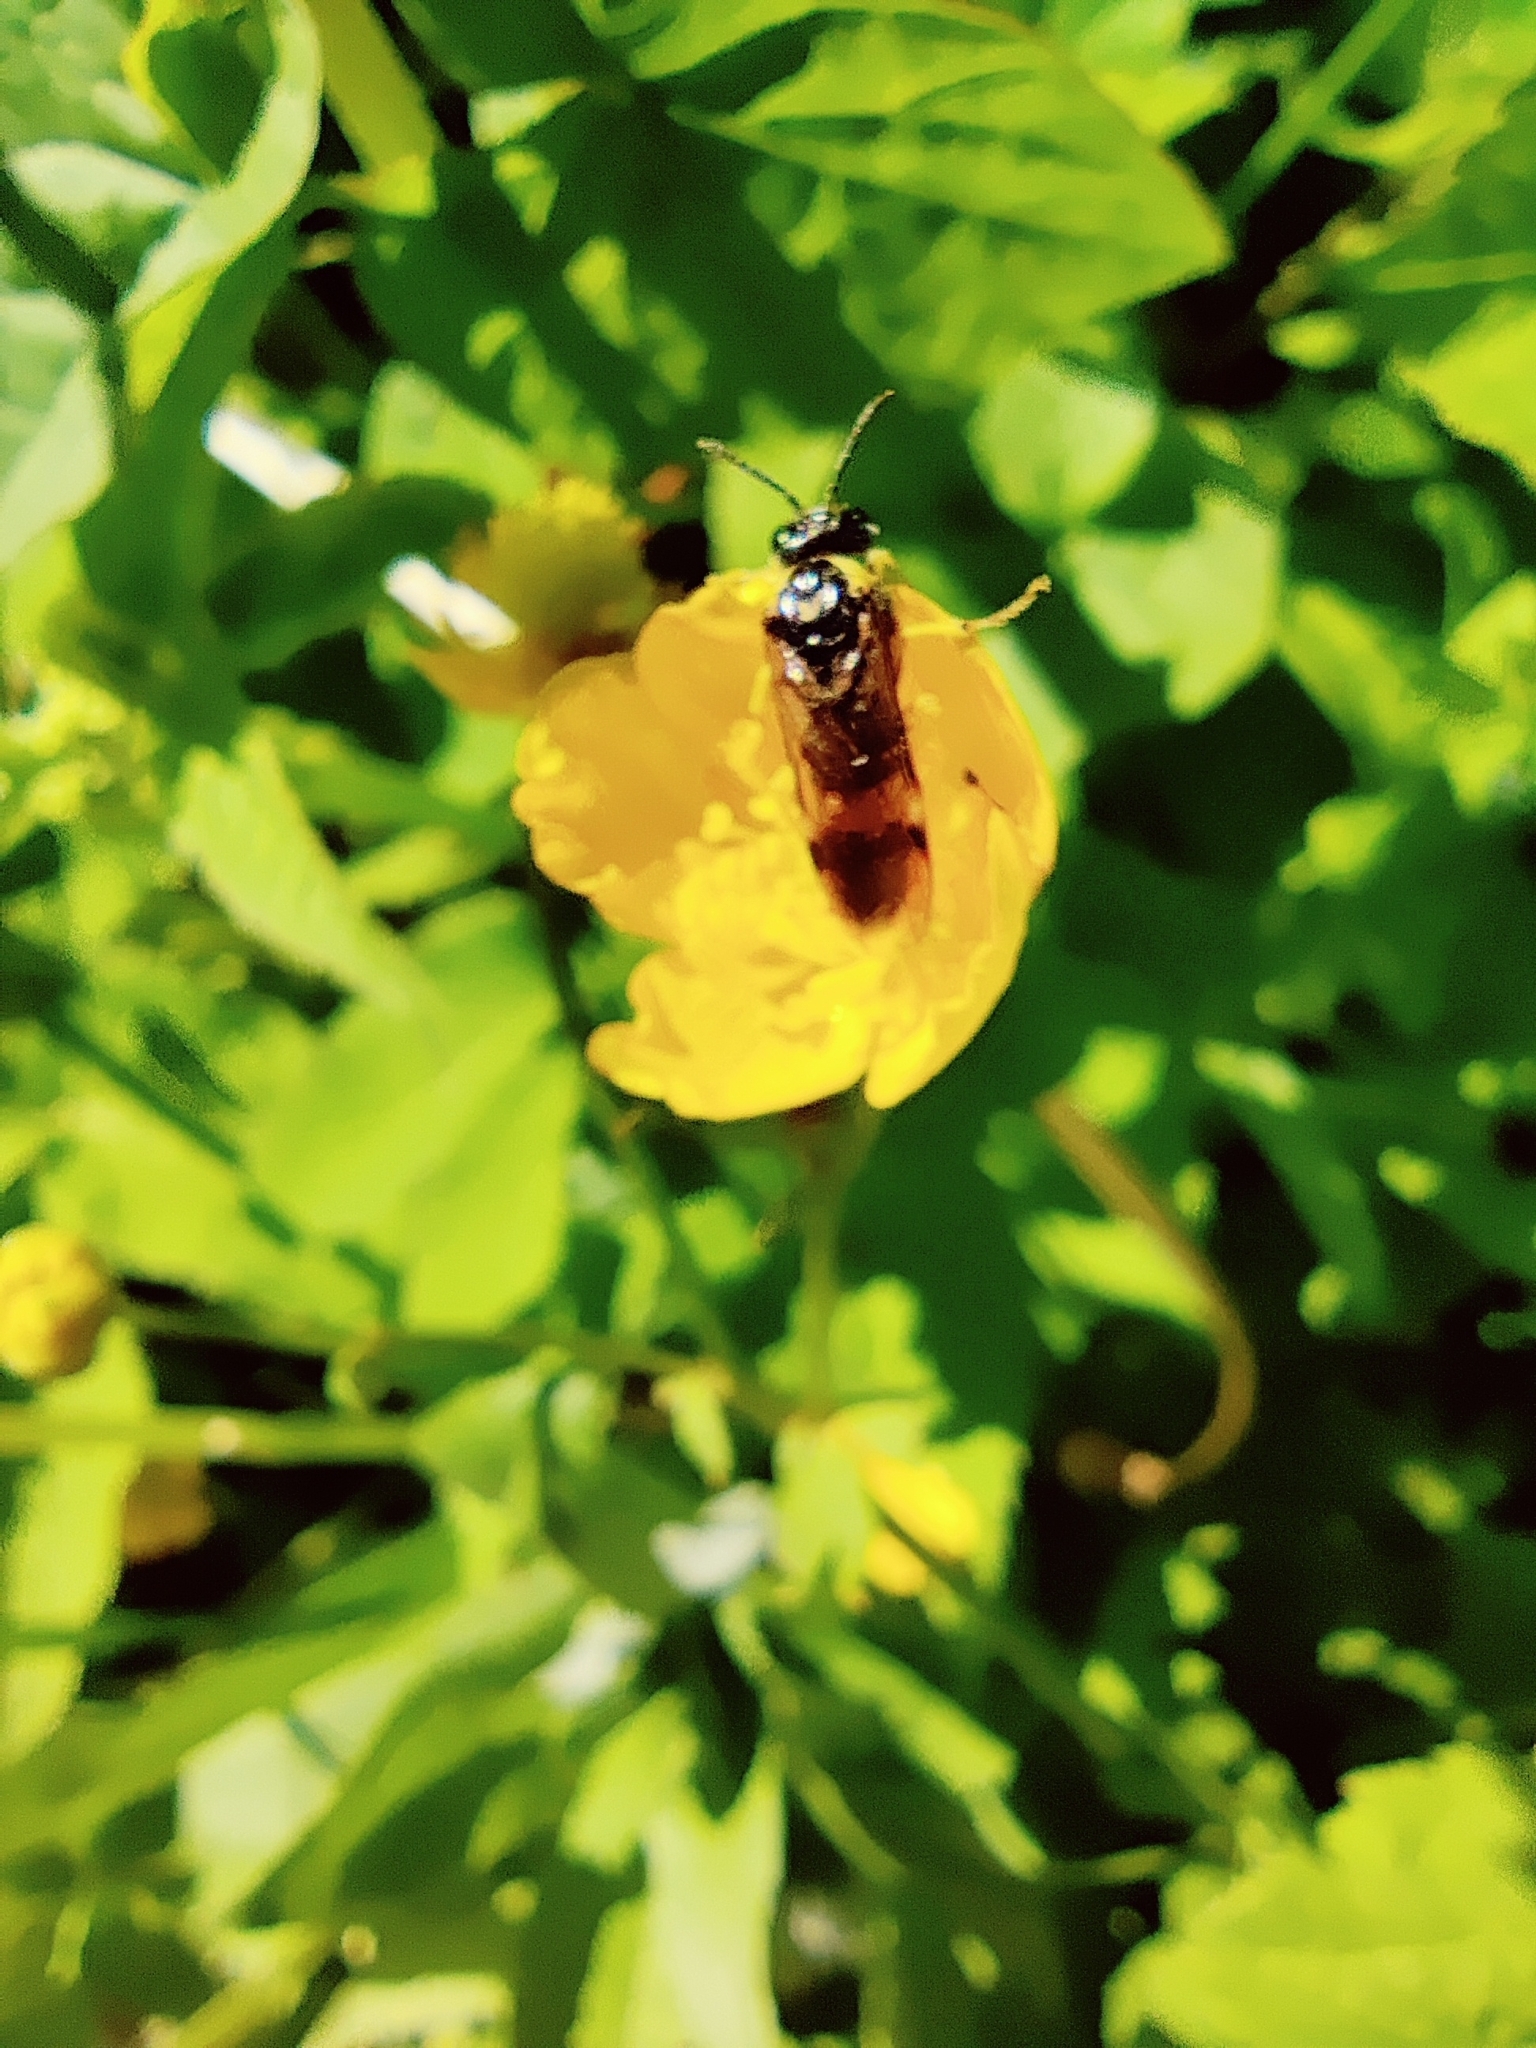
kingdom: Animalia
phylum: Arthropoda
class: Insecta
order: Hymenoptera
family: Tenthredinidae
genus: Tenthredo
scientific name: Tenthredo talyshensis
